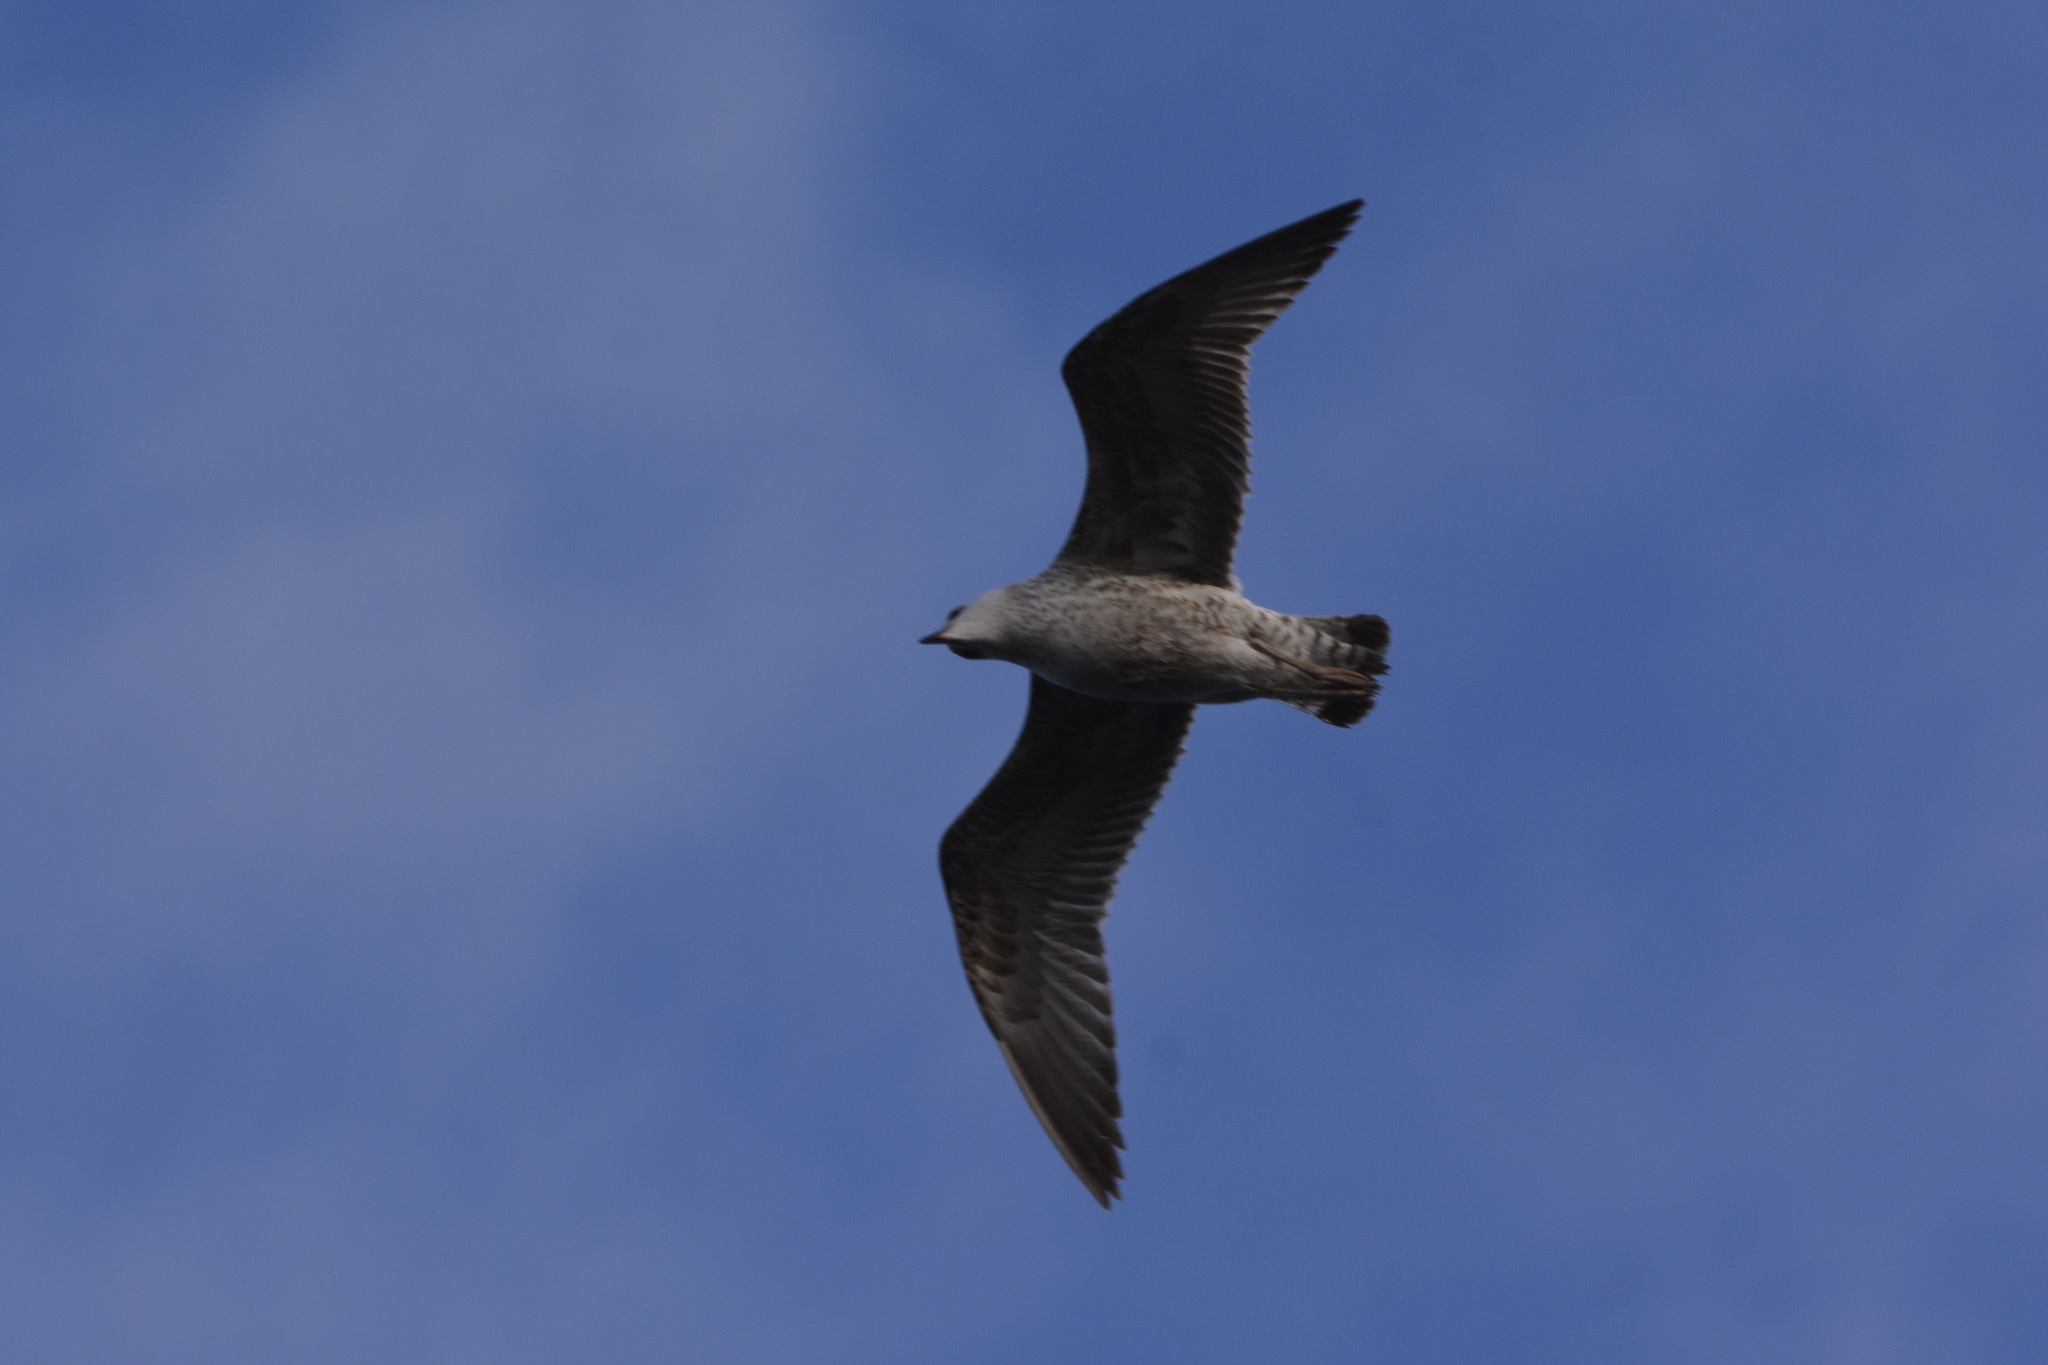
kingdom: Animalia
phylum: Chordata
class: Aves
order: Charadriiformes
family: Laridae
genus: Larus
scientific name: Larus michahellis
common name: Yellow-legged gull
